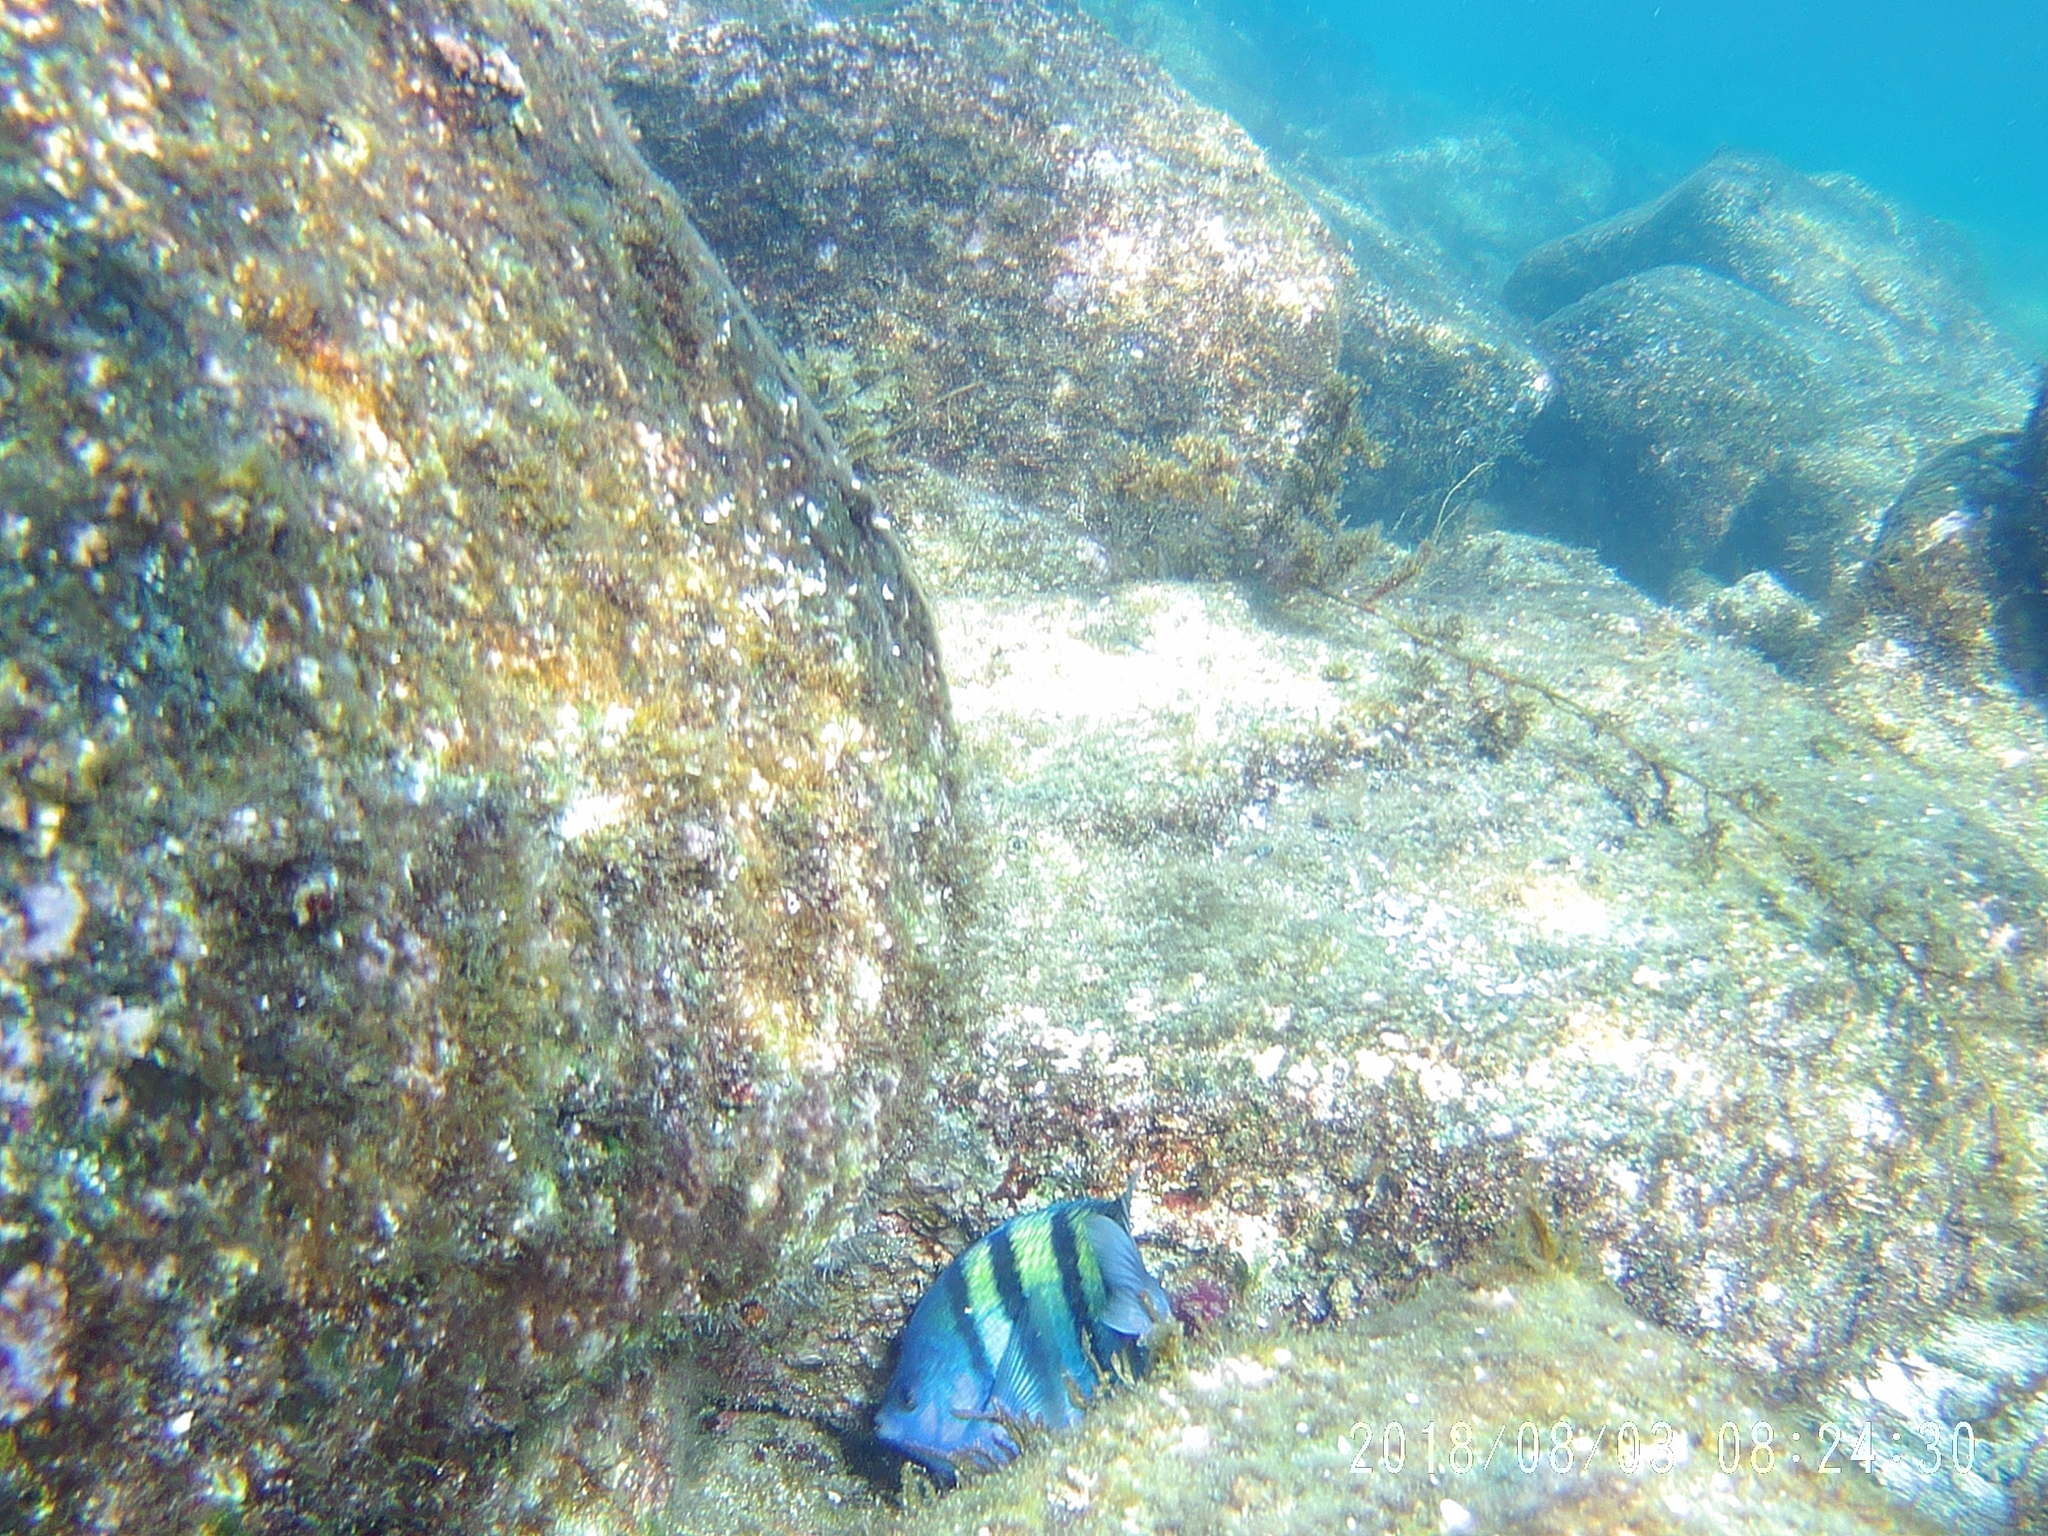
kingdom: Animalia
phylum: Chordata
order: Perciformes
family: Pomacentridae
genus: Abudefduf
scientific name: Abudefduf troschelii
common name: Panamic sergeant major
